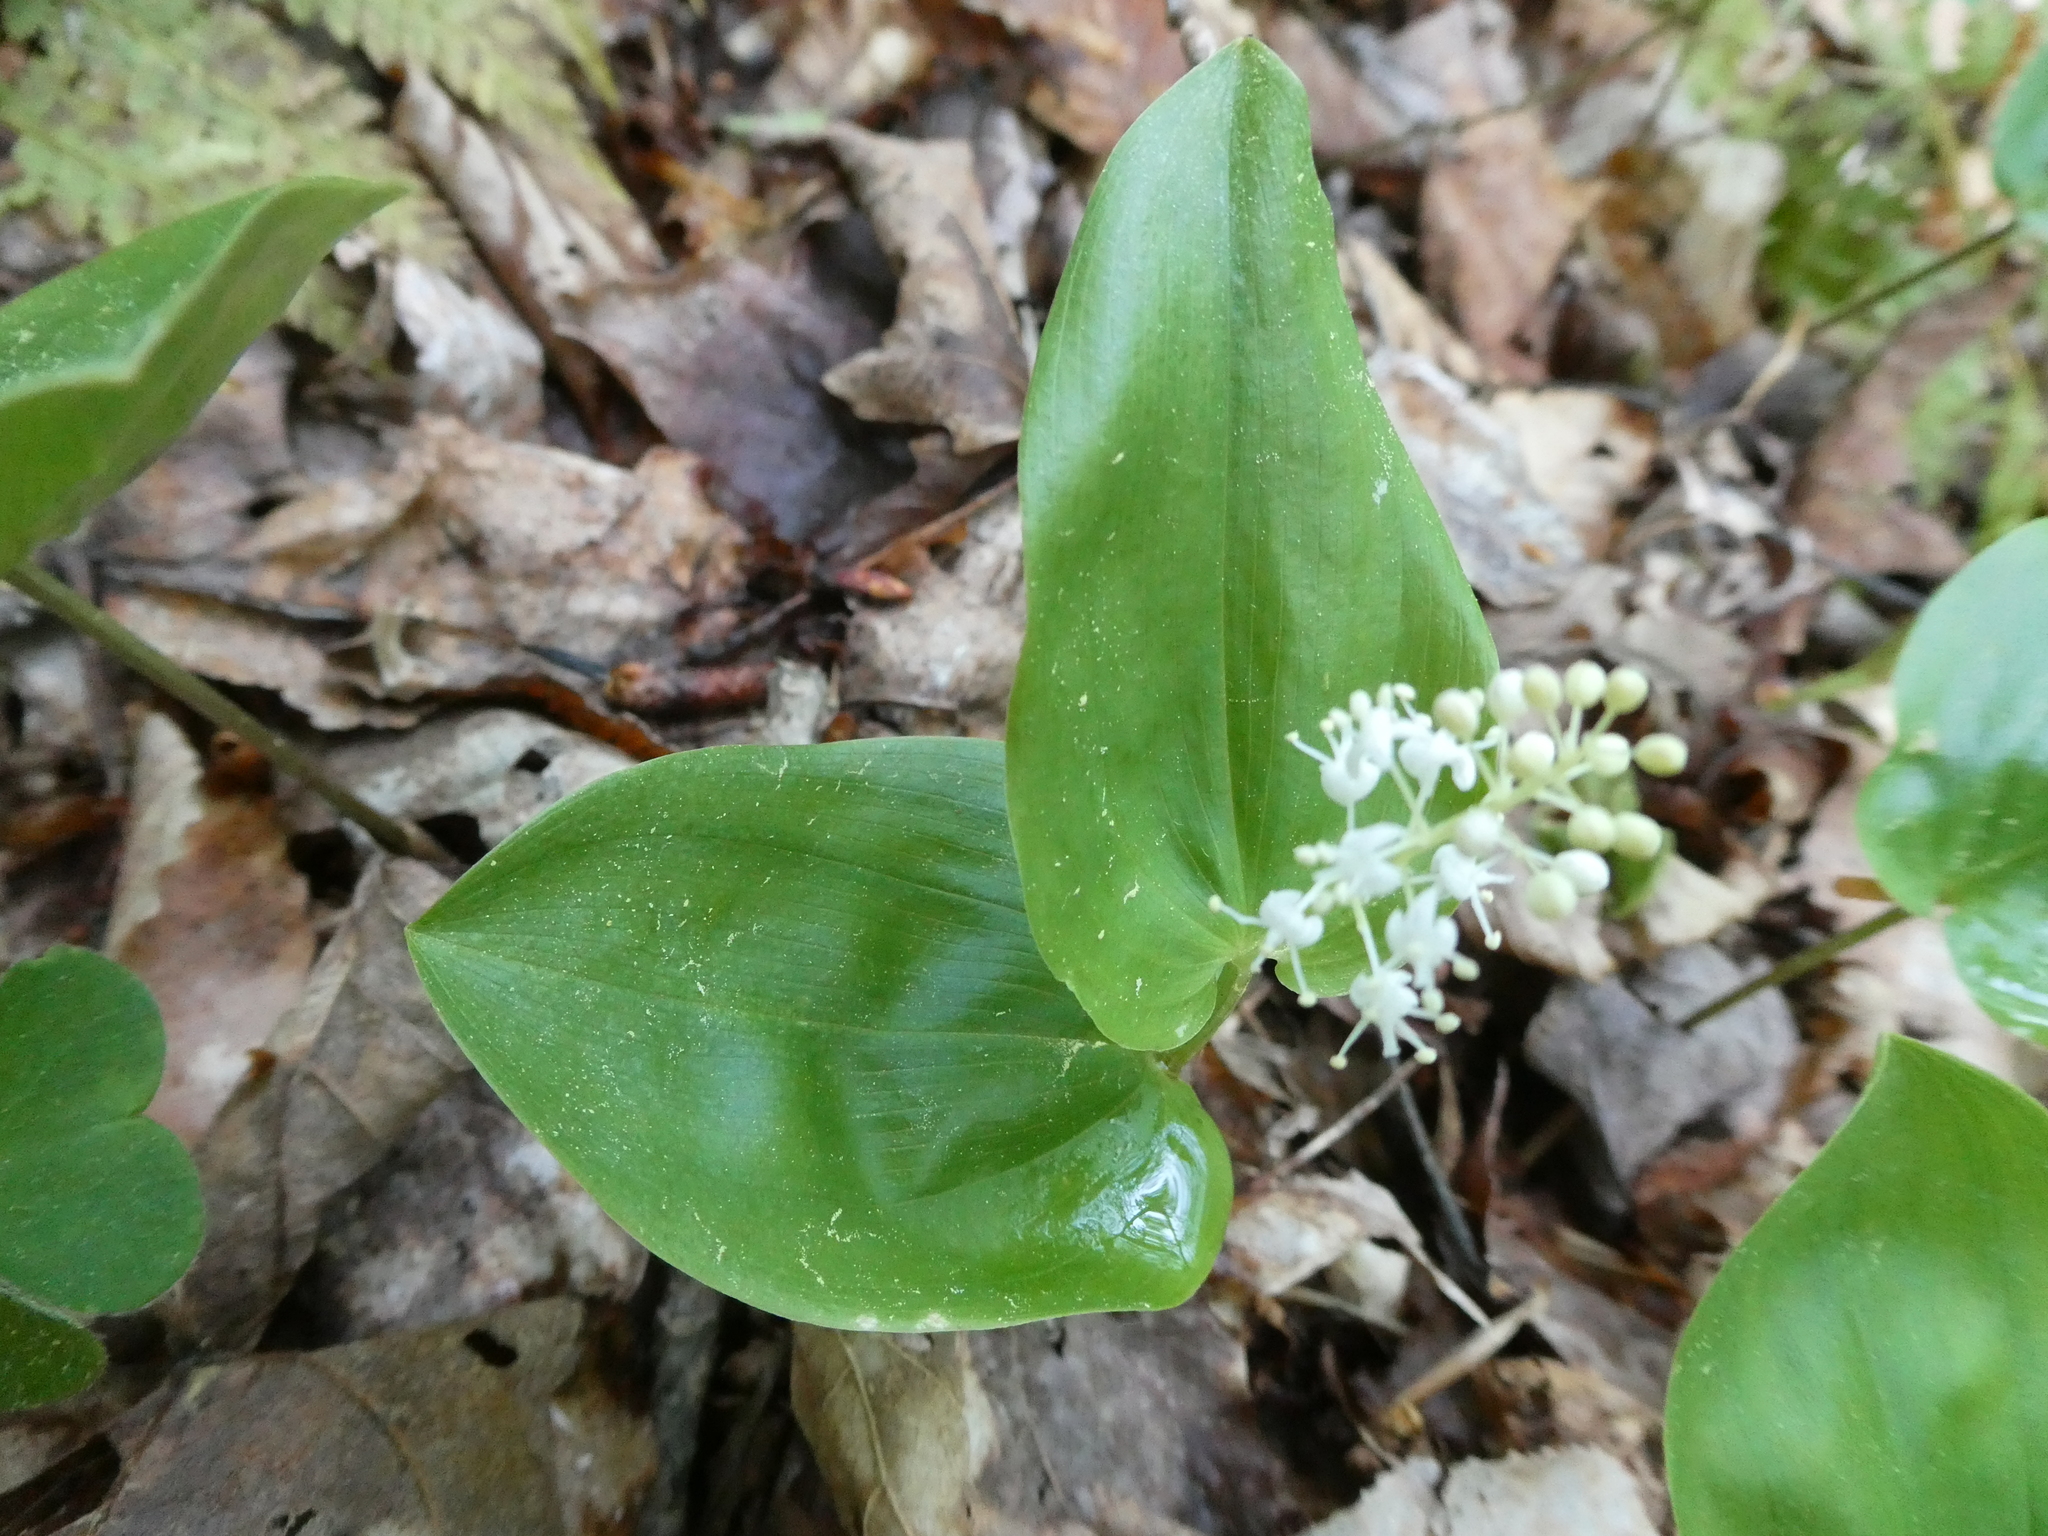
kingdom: Plantae
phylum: Tracheophyta
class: Liliopsida
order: Asparagales
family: Asparagaceae
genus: Maianthemum
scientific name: Maianthemum canadense
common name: False lily-of-the-valley
